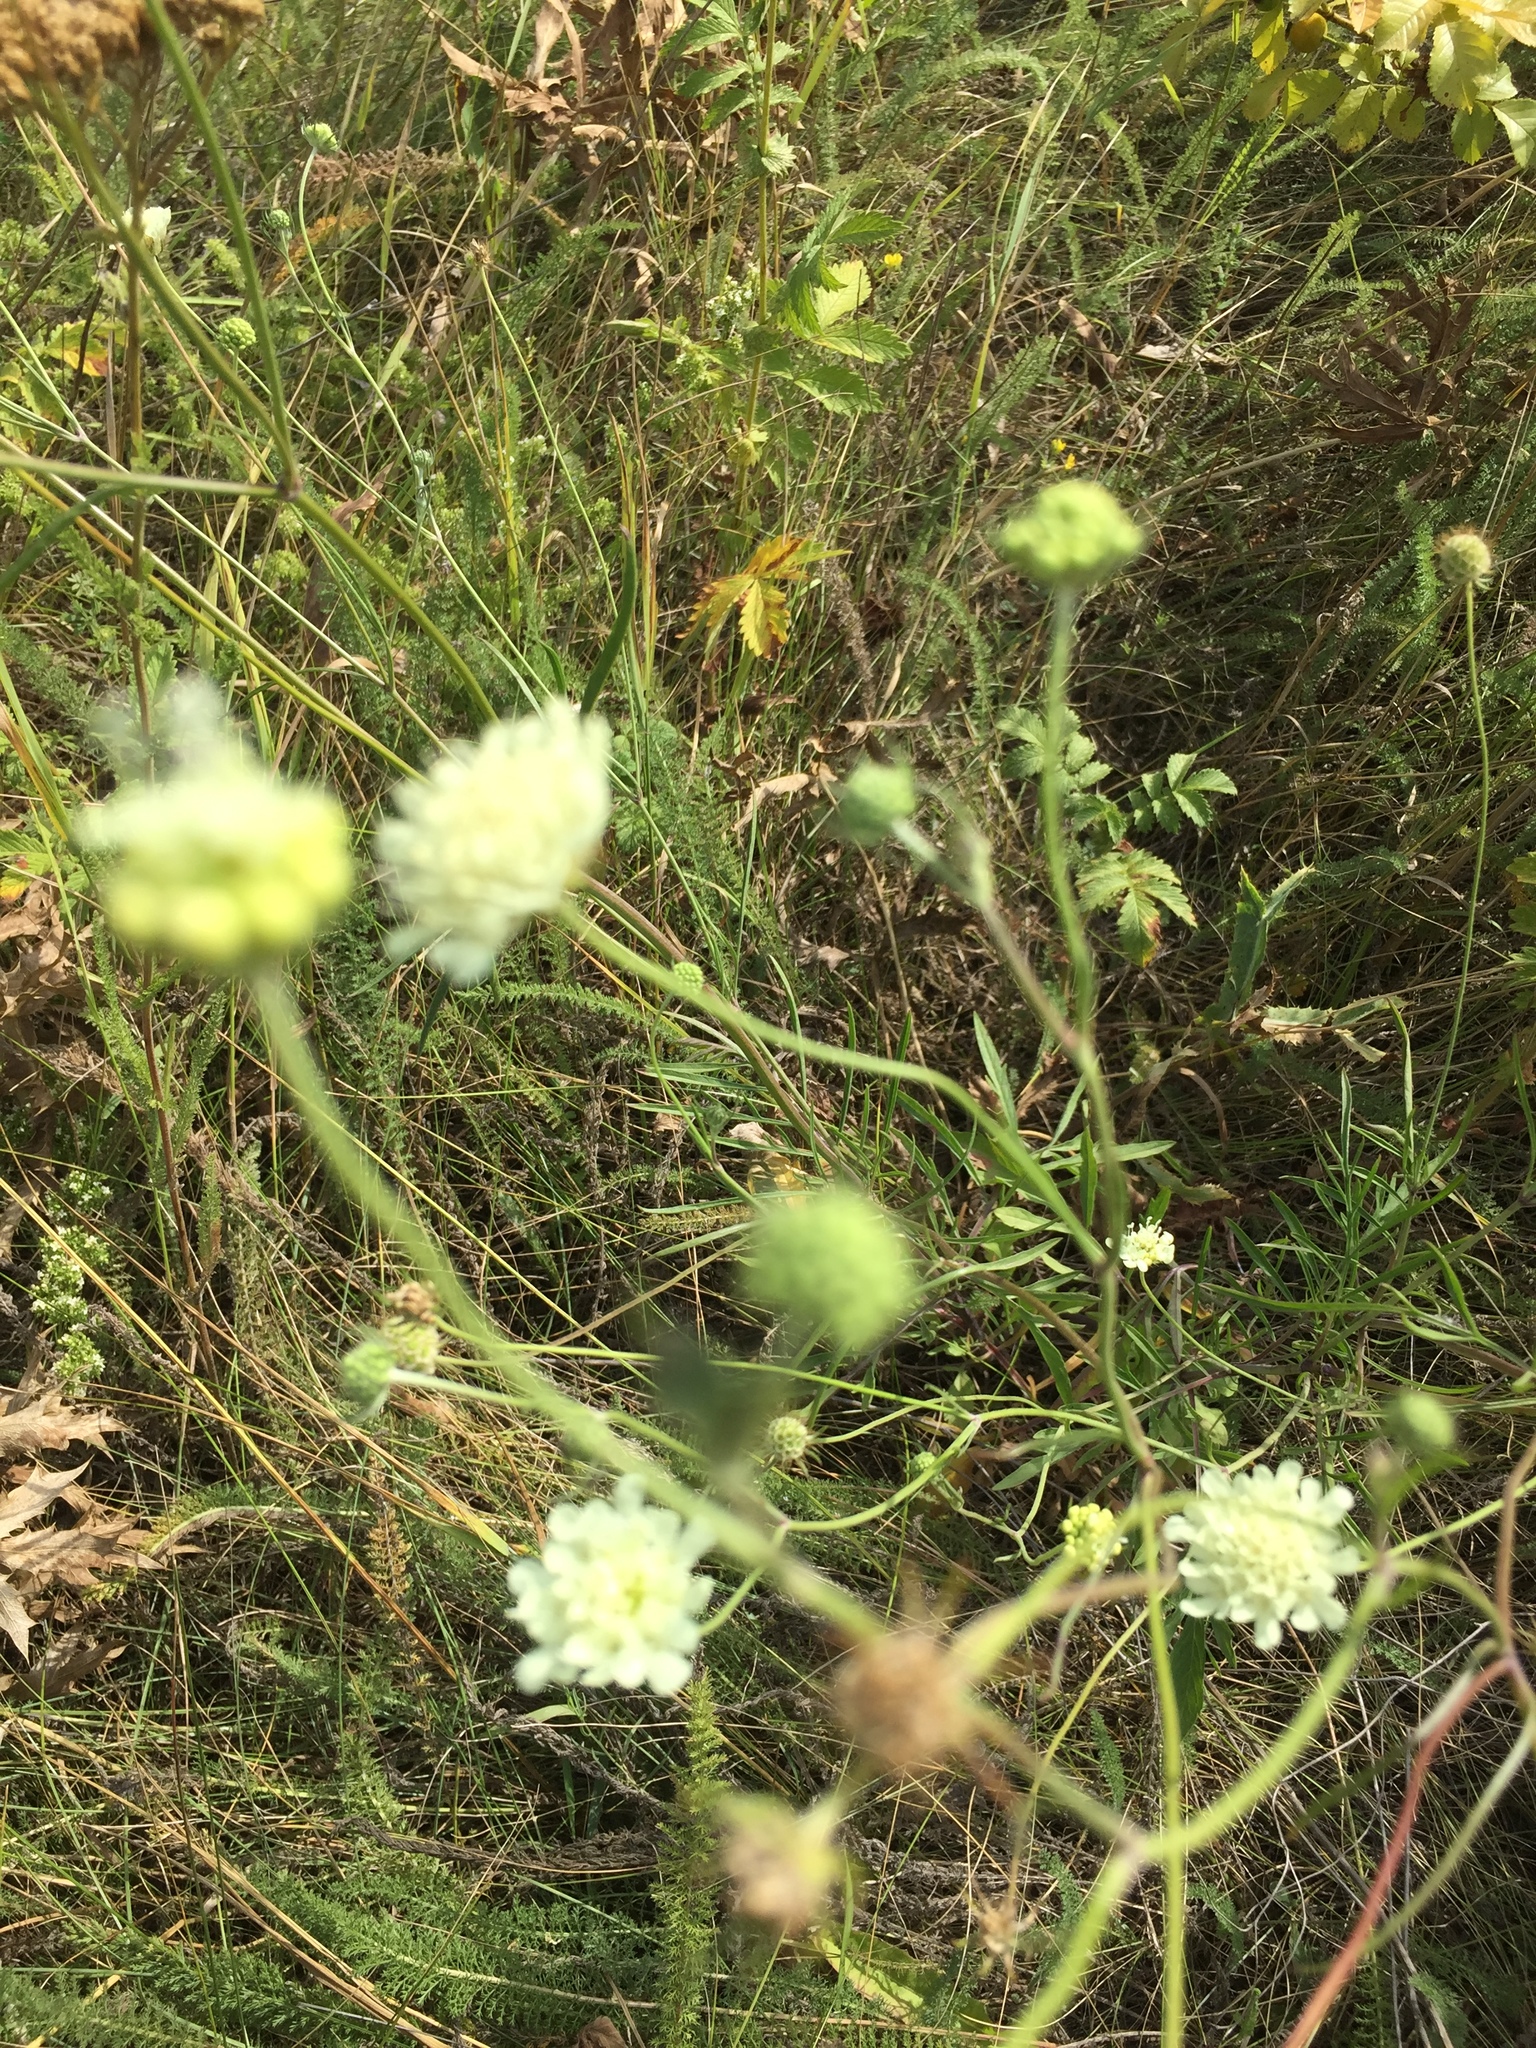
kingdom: Plantae
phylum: Tracheophyta
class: Magnoliopsida
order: Dipsacales
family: Caprifoliaceae
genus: Scabiosa
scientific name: Scabiosa ochroleuca
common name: Cream pincushions
